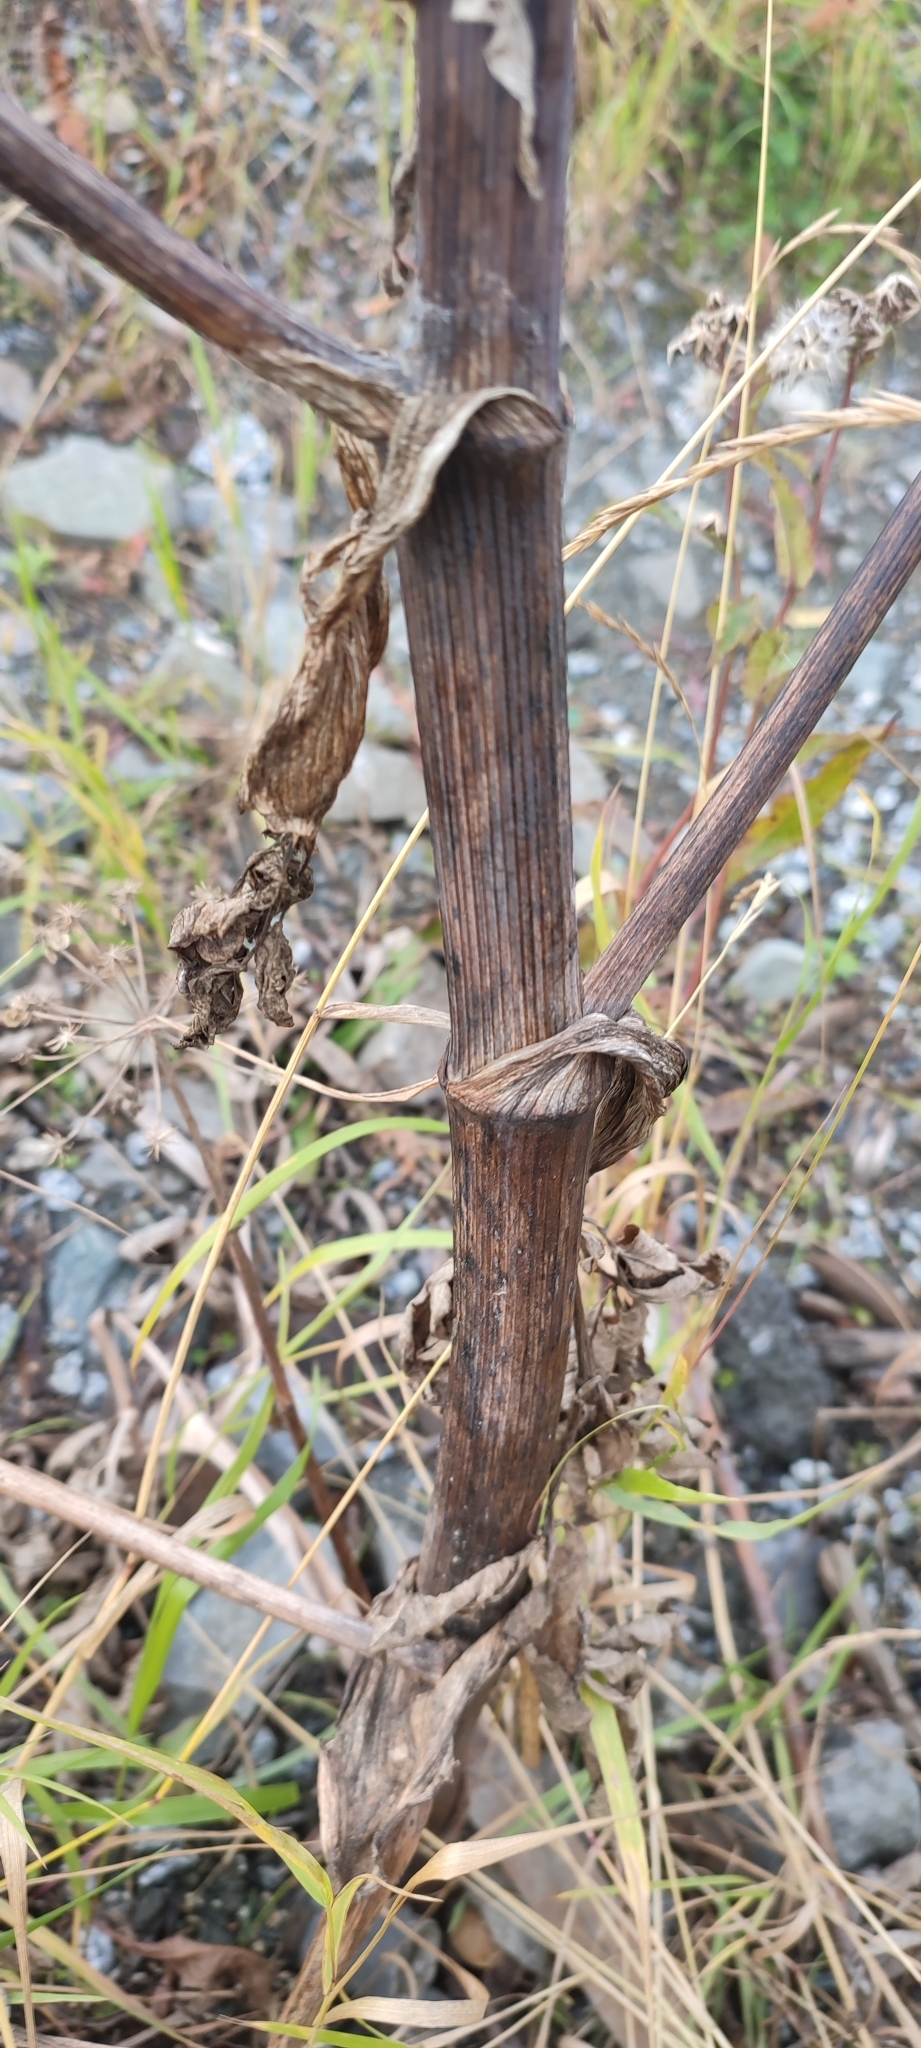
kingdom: Plantae
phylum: Tracheophyta
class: Magnoliopsida
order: Apiales
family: Apiaceae
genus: Angelica
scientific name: Angelica decurrens
